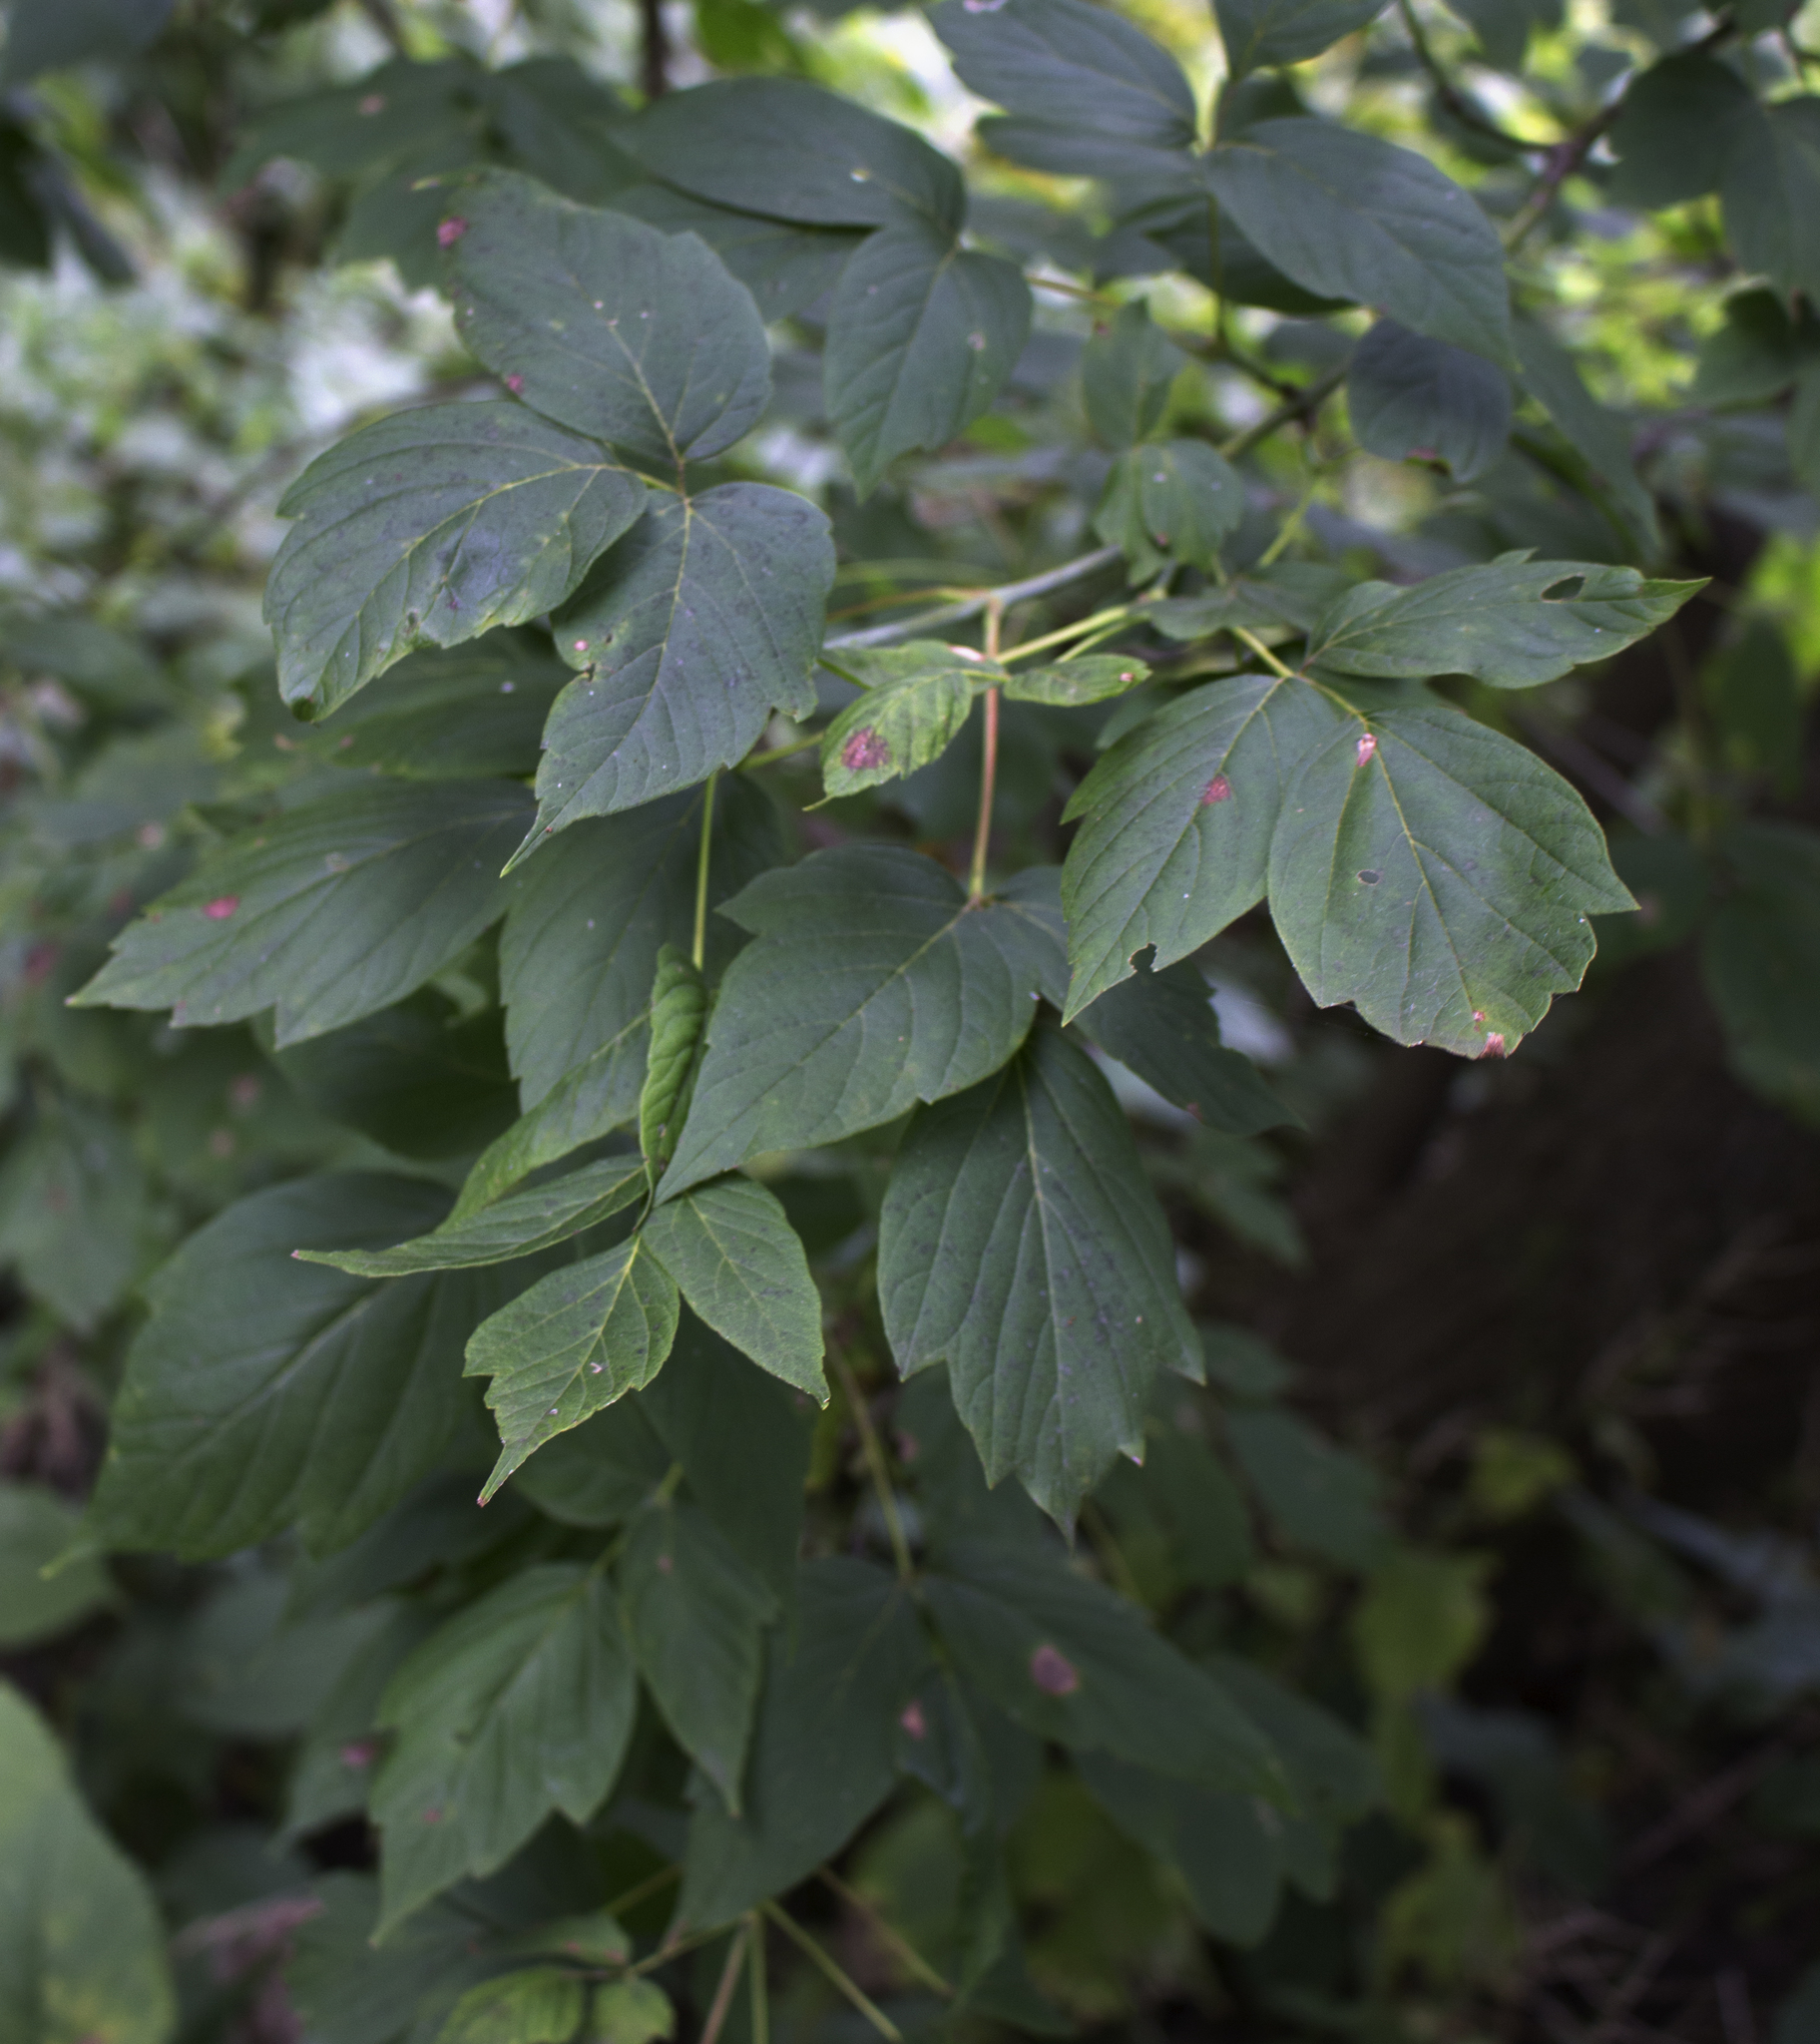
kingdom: Plantae
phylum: Tracheophyta
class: Magnoliopsida
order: Sapindales
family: Sapindaceae
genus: Acer
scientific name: Acer negundo
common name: Ashleaf maple
